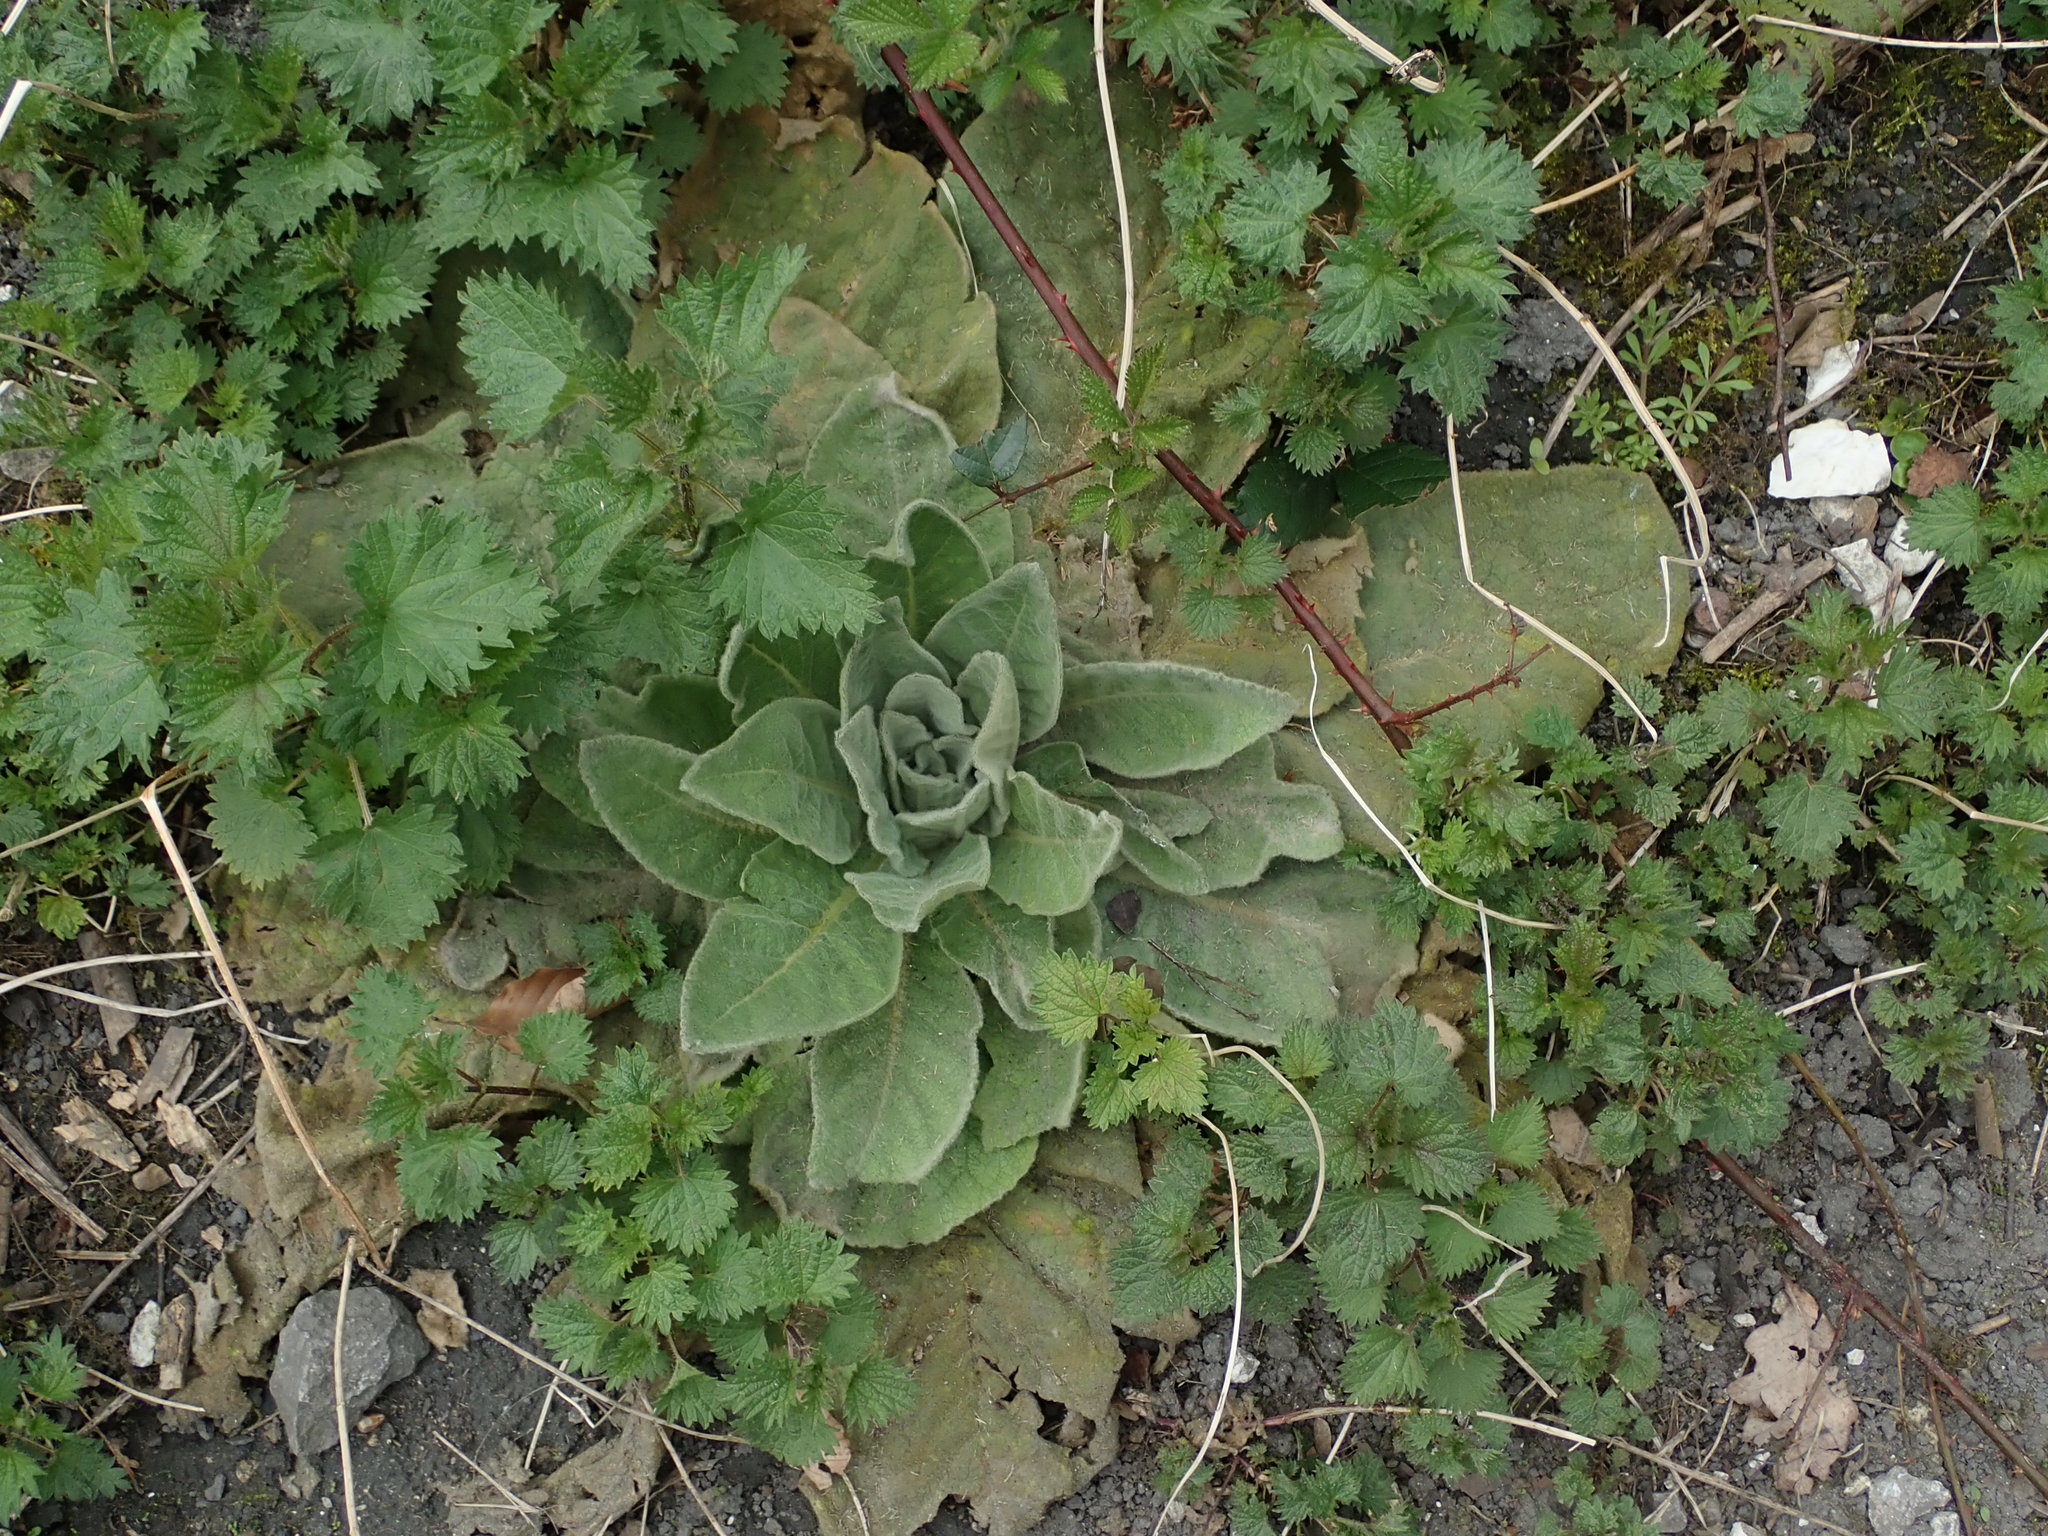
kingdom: Plantae
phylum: Tracheophyta
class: Magnoliopsida
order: Lamiales
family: Scrophulariaceae
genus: Verbascum
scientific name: Verbascum thapsus
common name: Common mullein
